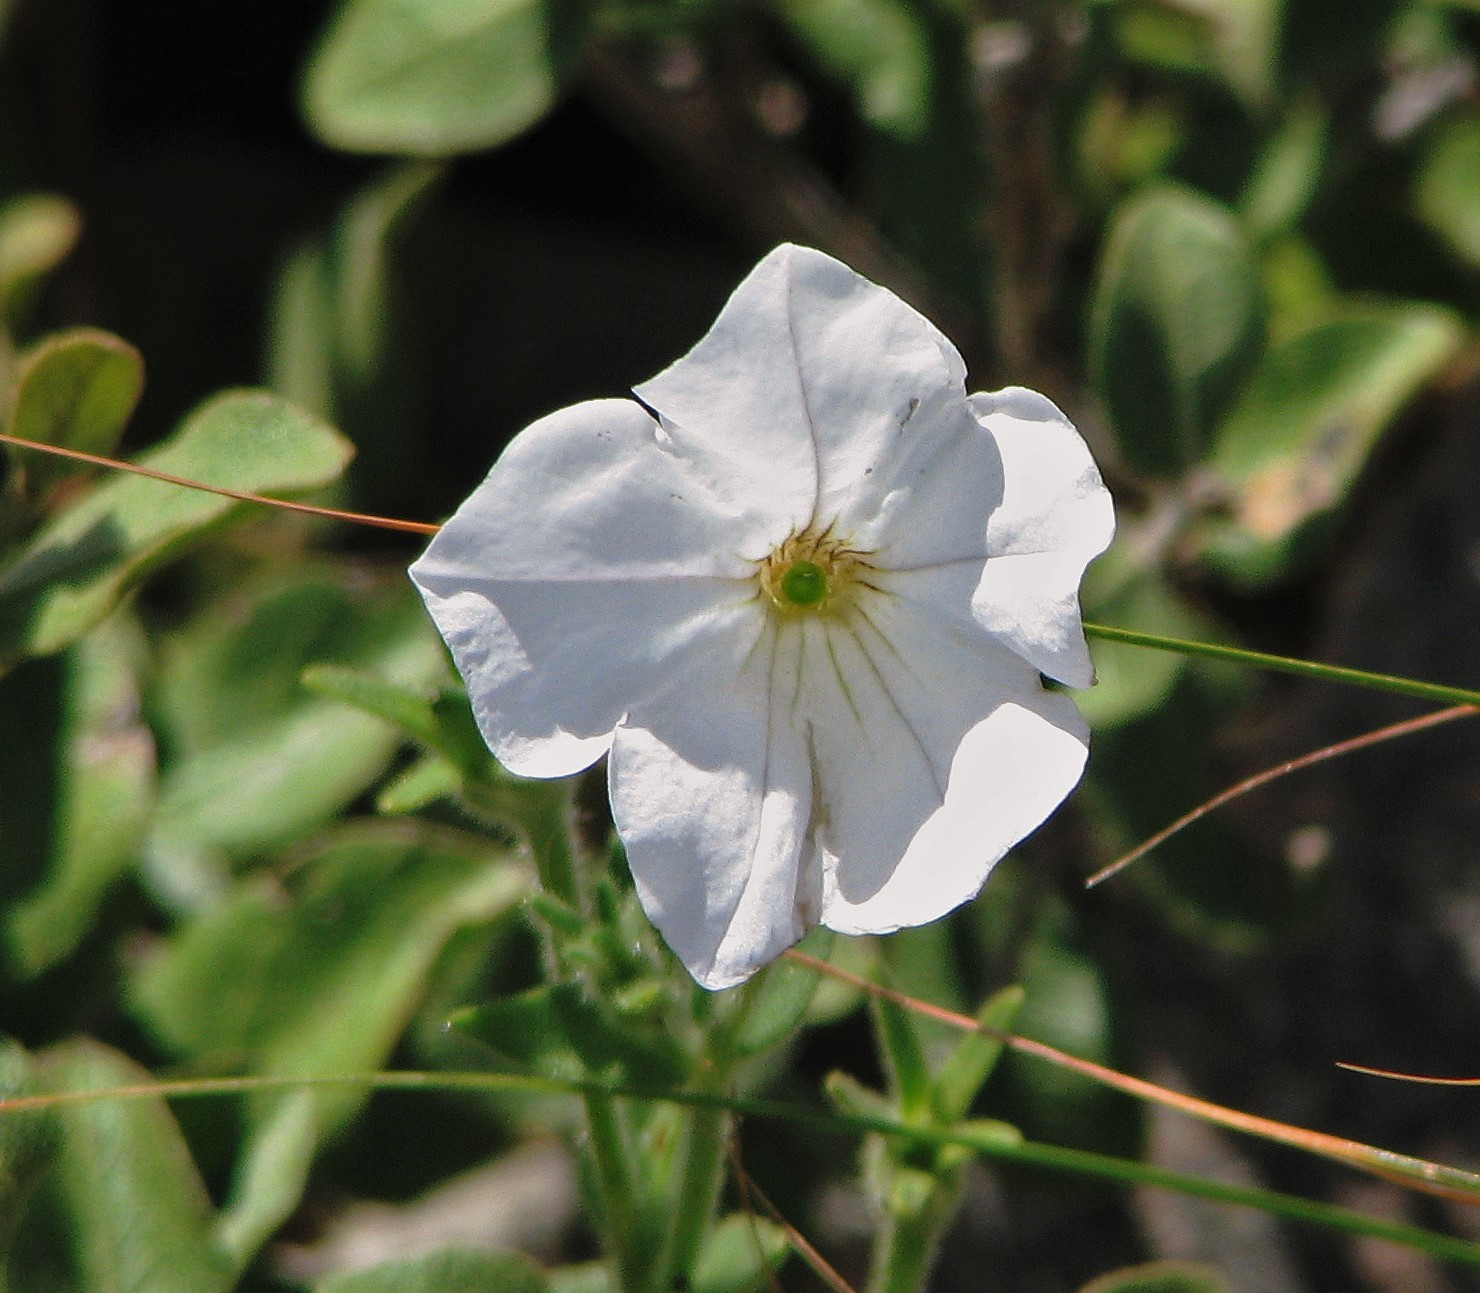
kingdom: Plantae
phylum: Tracheophyta
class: Magnoliopsida
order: Solanales
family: Solanaceae
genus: Petunia
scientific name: Petunia axillaris
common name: Large white petunia
